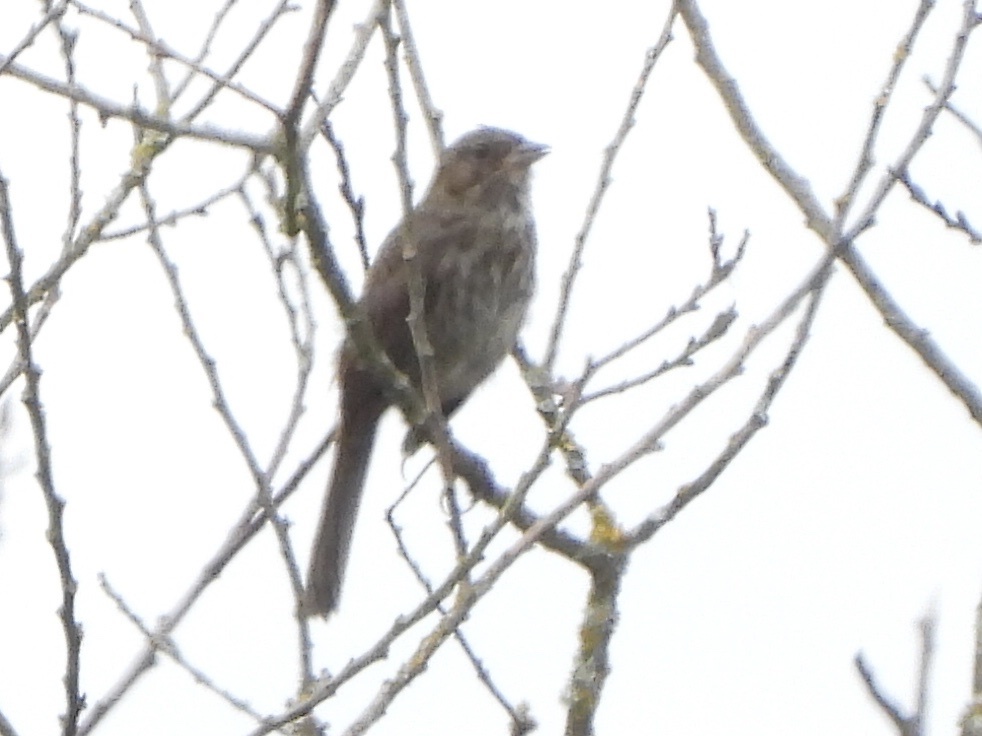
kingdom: Animalia
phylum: Chordata
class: Aves
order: Passeriformes
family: Passerellidae
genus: Melospiza
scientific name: Melospiza melodia
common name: Song sparrow
